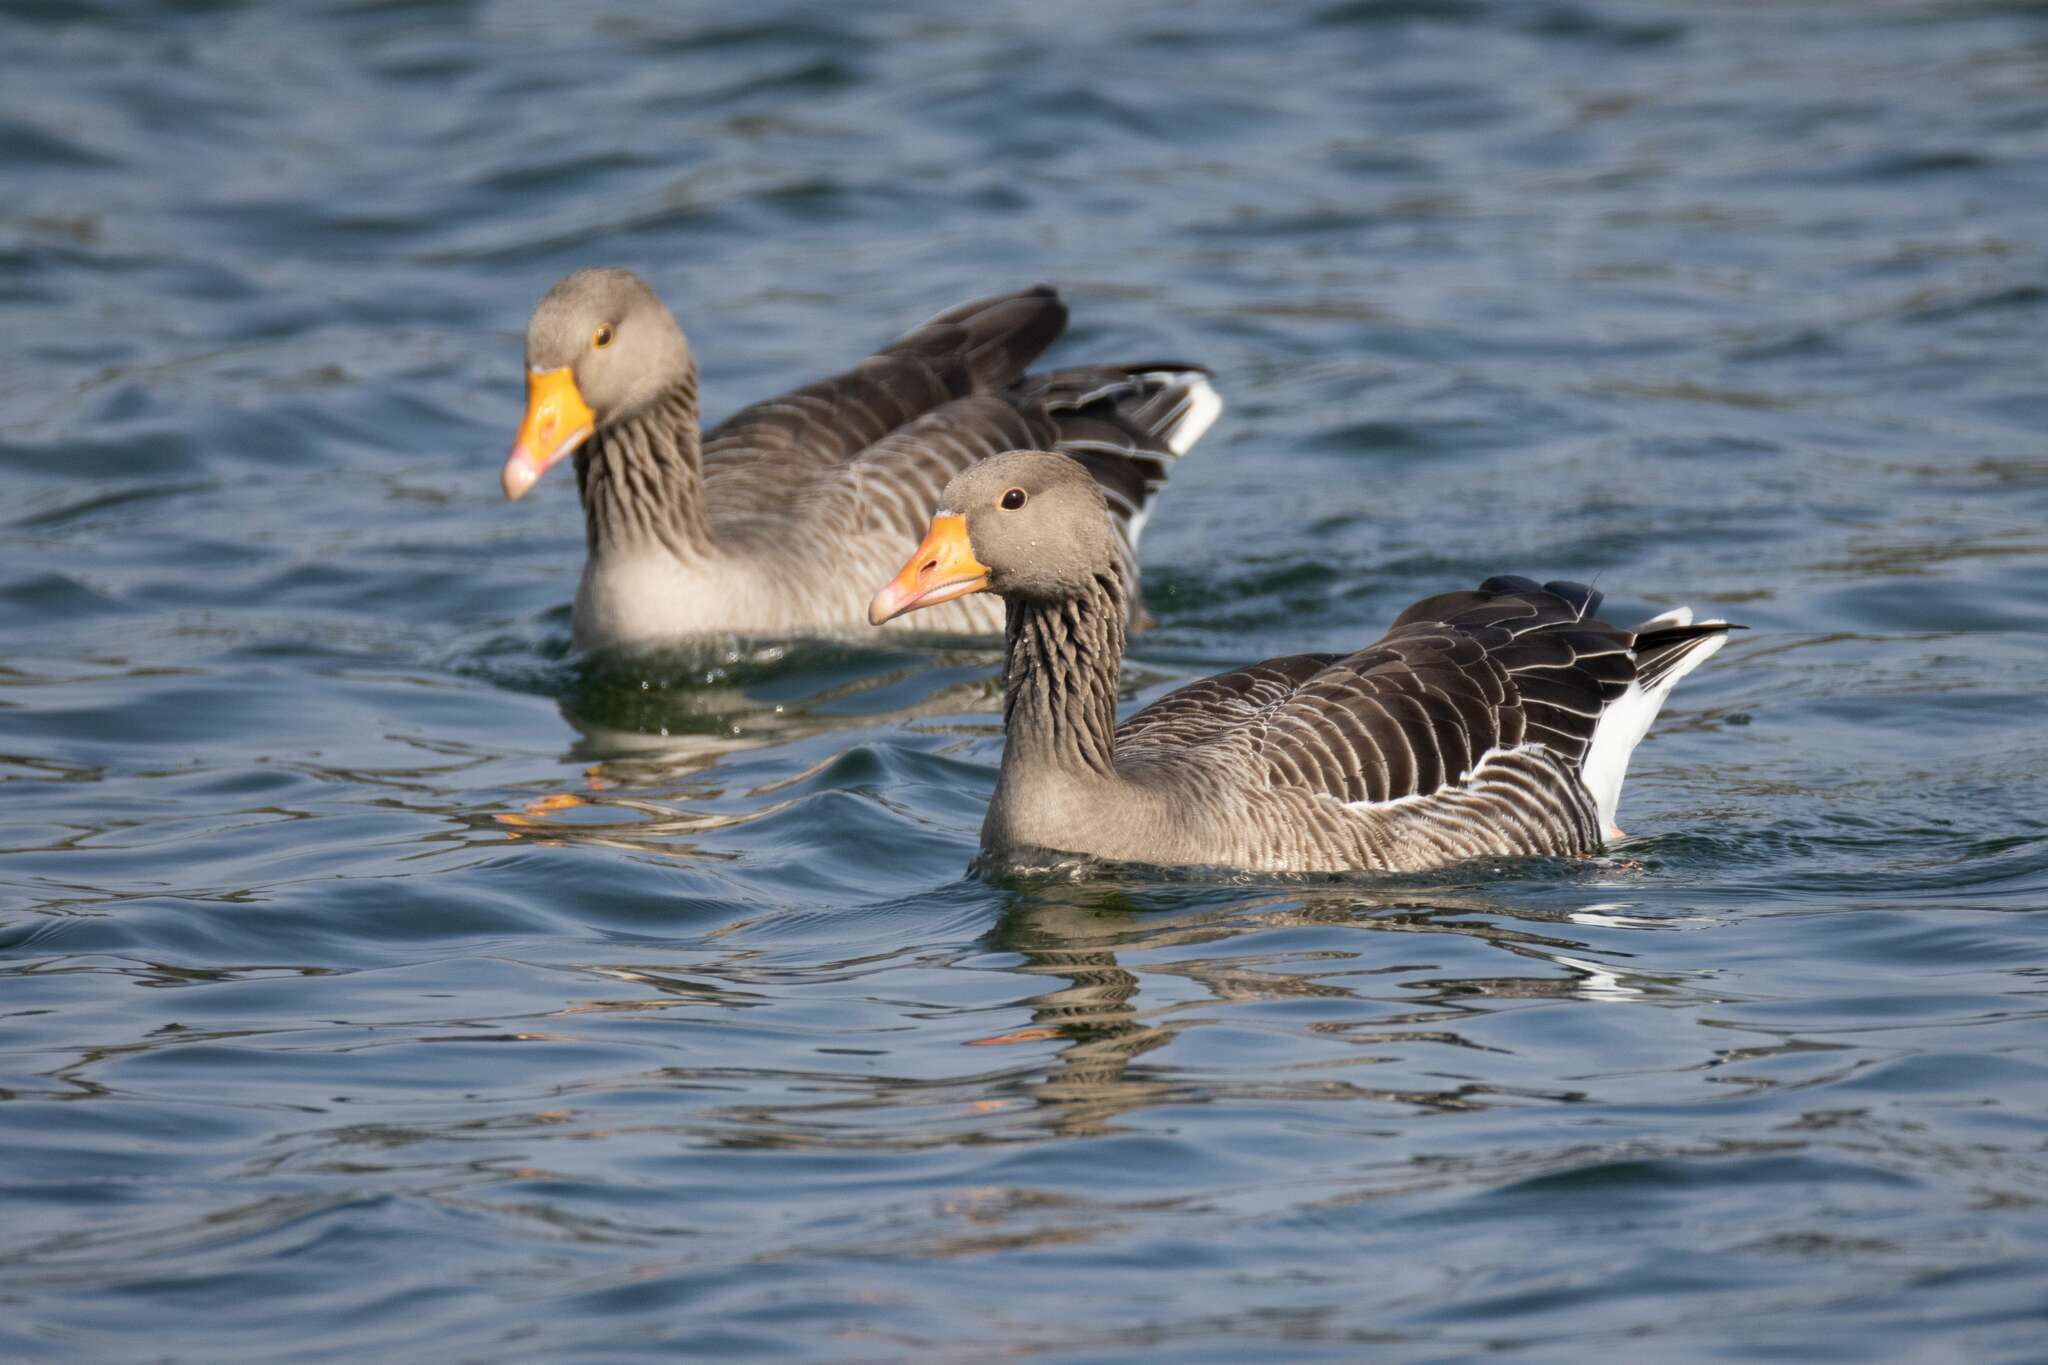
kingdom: Animalia
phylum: Chordata
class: Aves
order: Anseriformes
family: Anatidae
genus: Anser
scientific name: Anser anser
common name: Greylag goose
